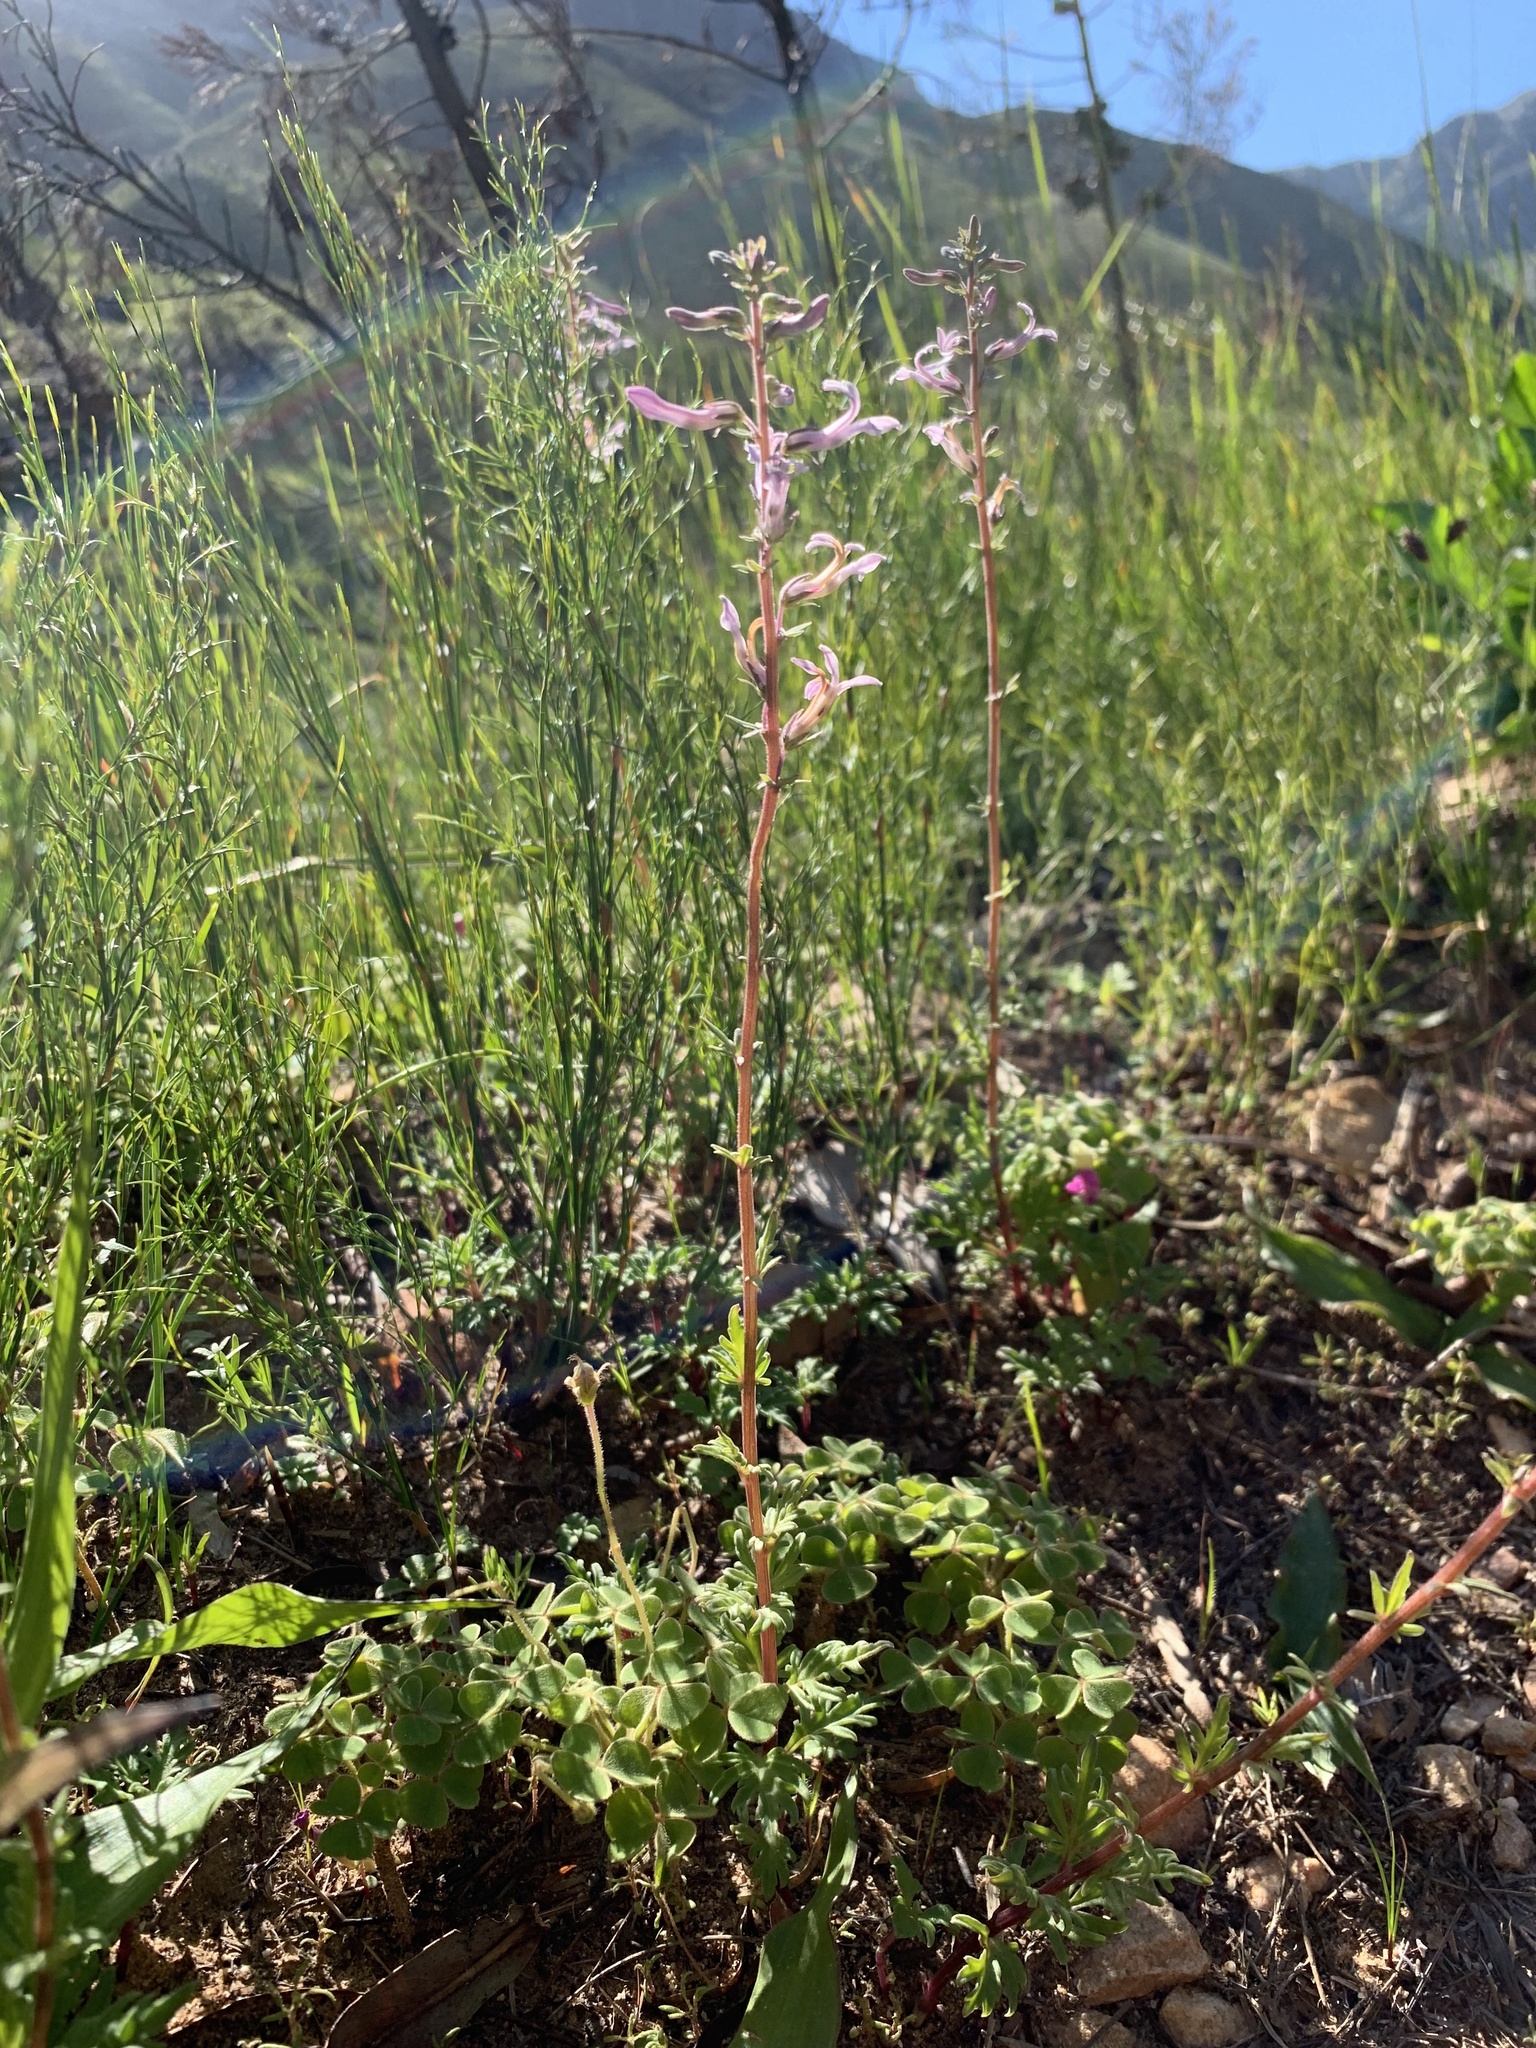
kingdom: Plantae
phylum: Tracheophyta
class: Magnoliopsida
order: Asterales
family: Campanulaceae
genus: Cyphia
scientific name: Cyphia bulbosa
